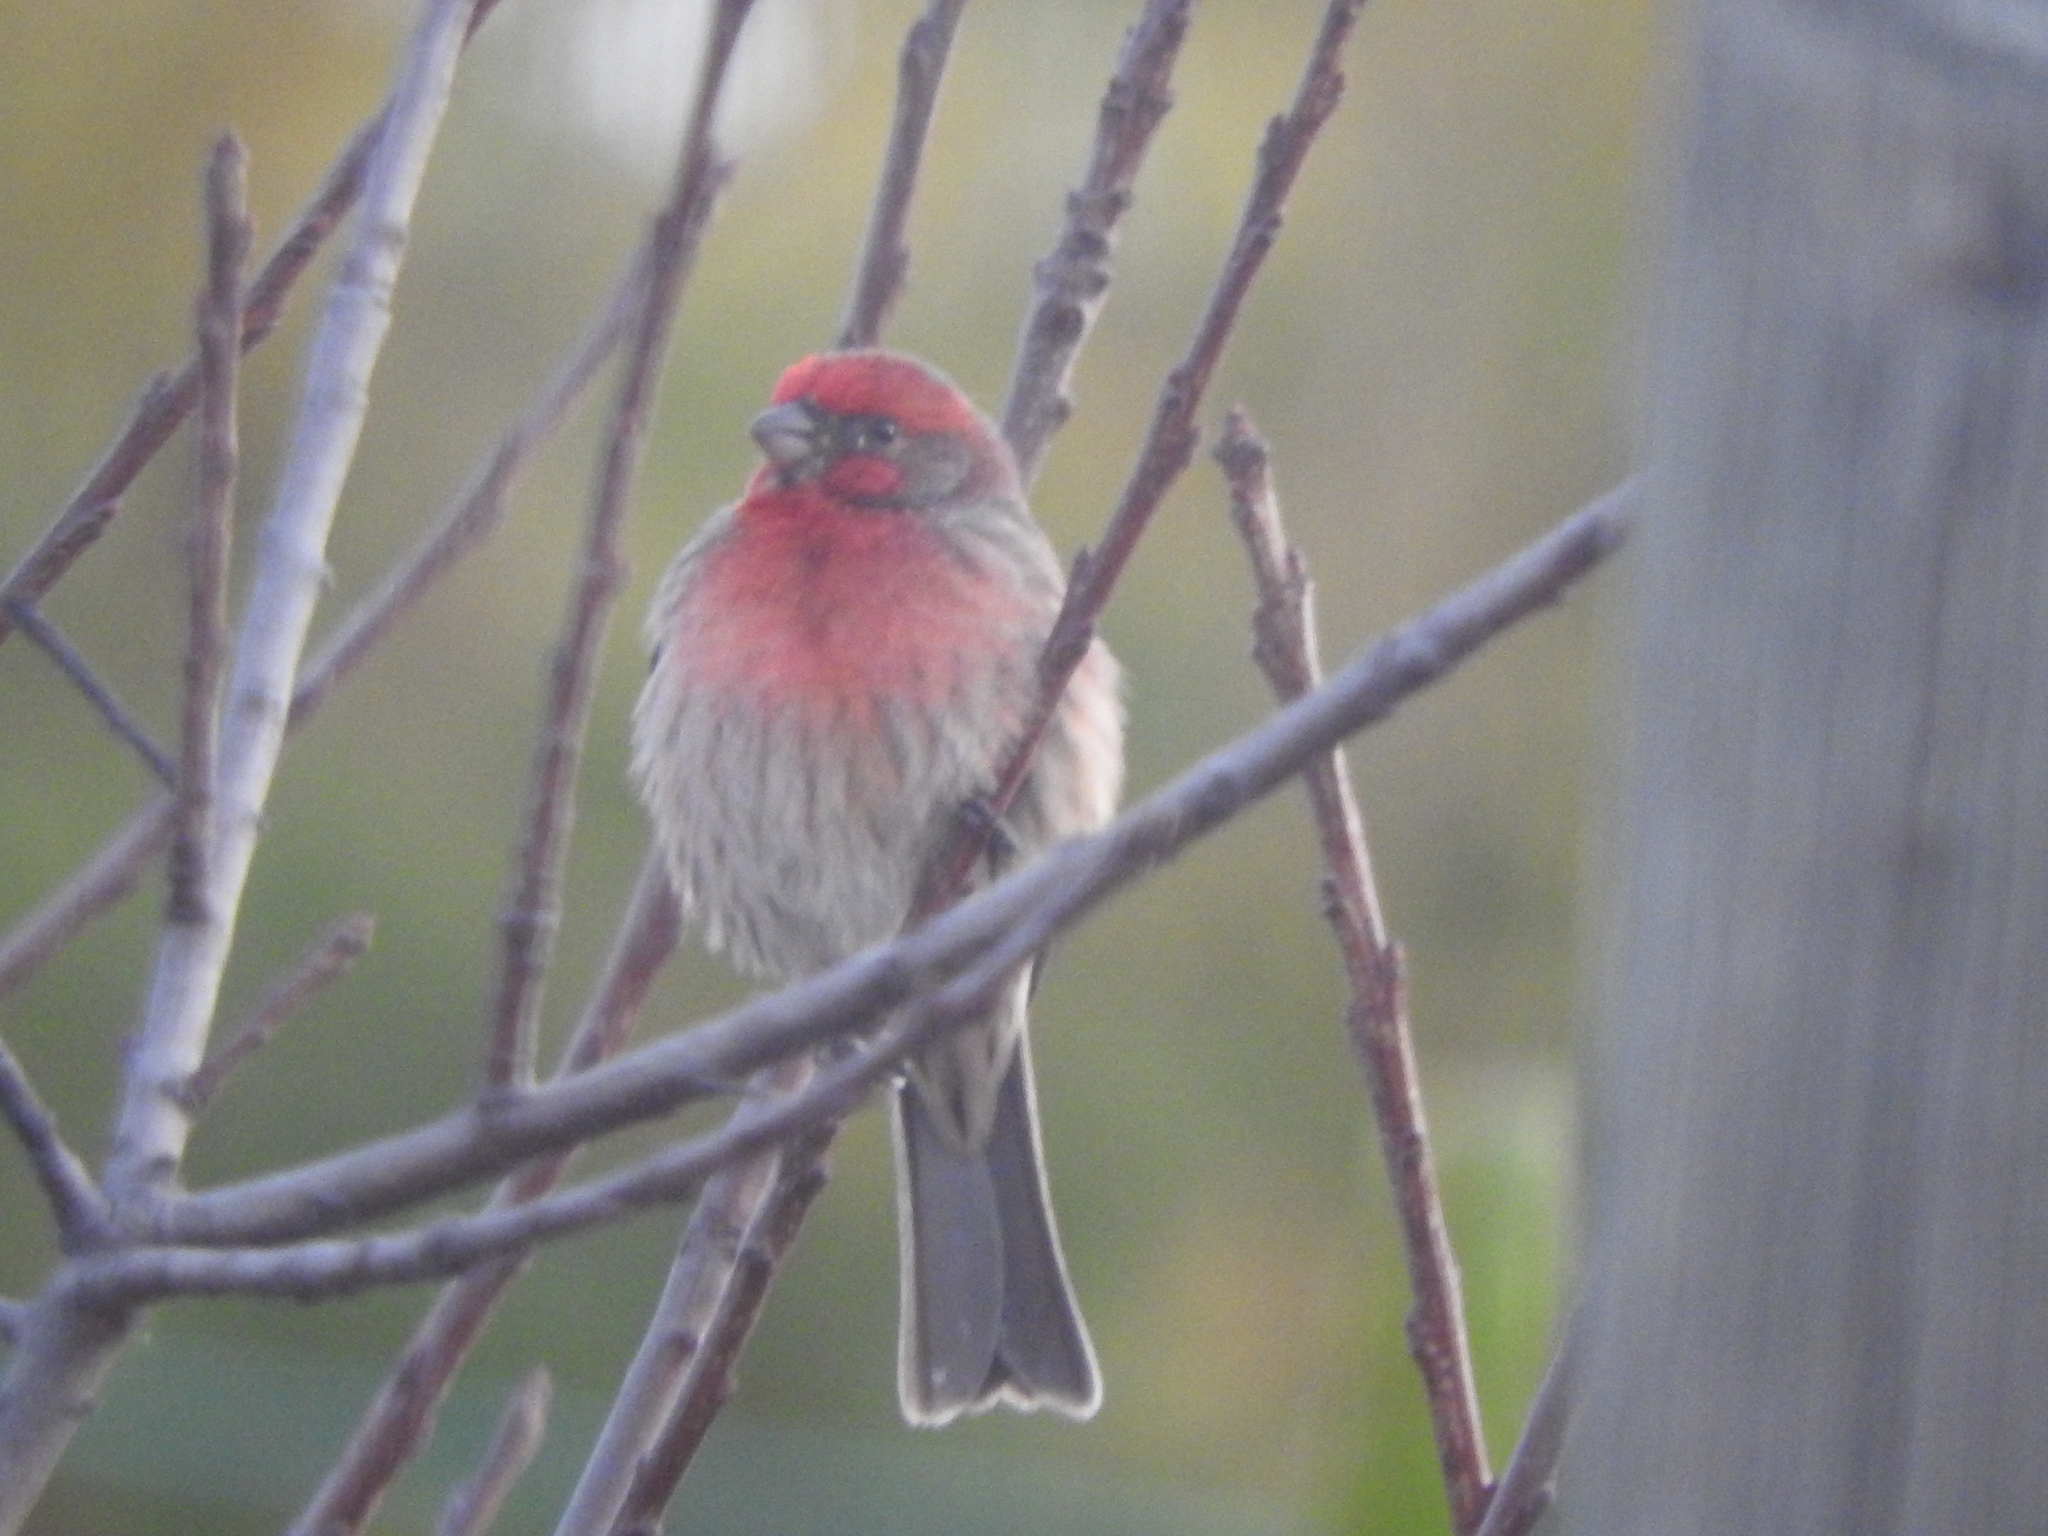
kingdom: Animalia
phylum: Chordata
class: Aves
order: Passeriformes
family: Fringillidae
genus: Haemorhous
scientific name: Haemorhous mexicanus
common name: House finch
